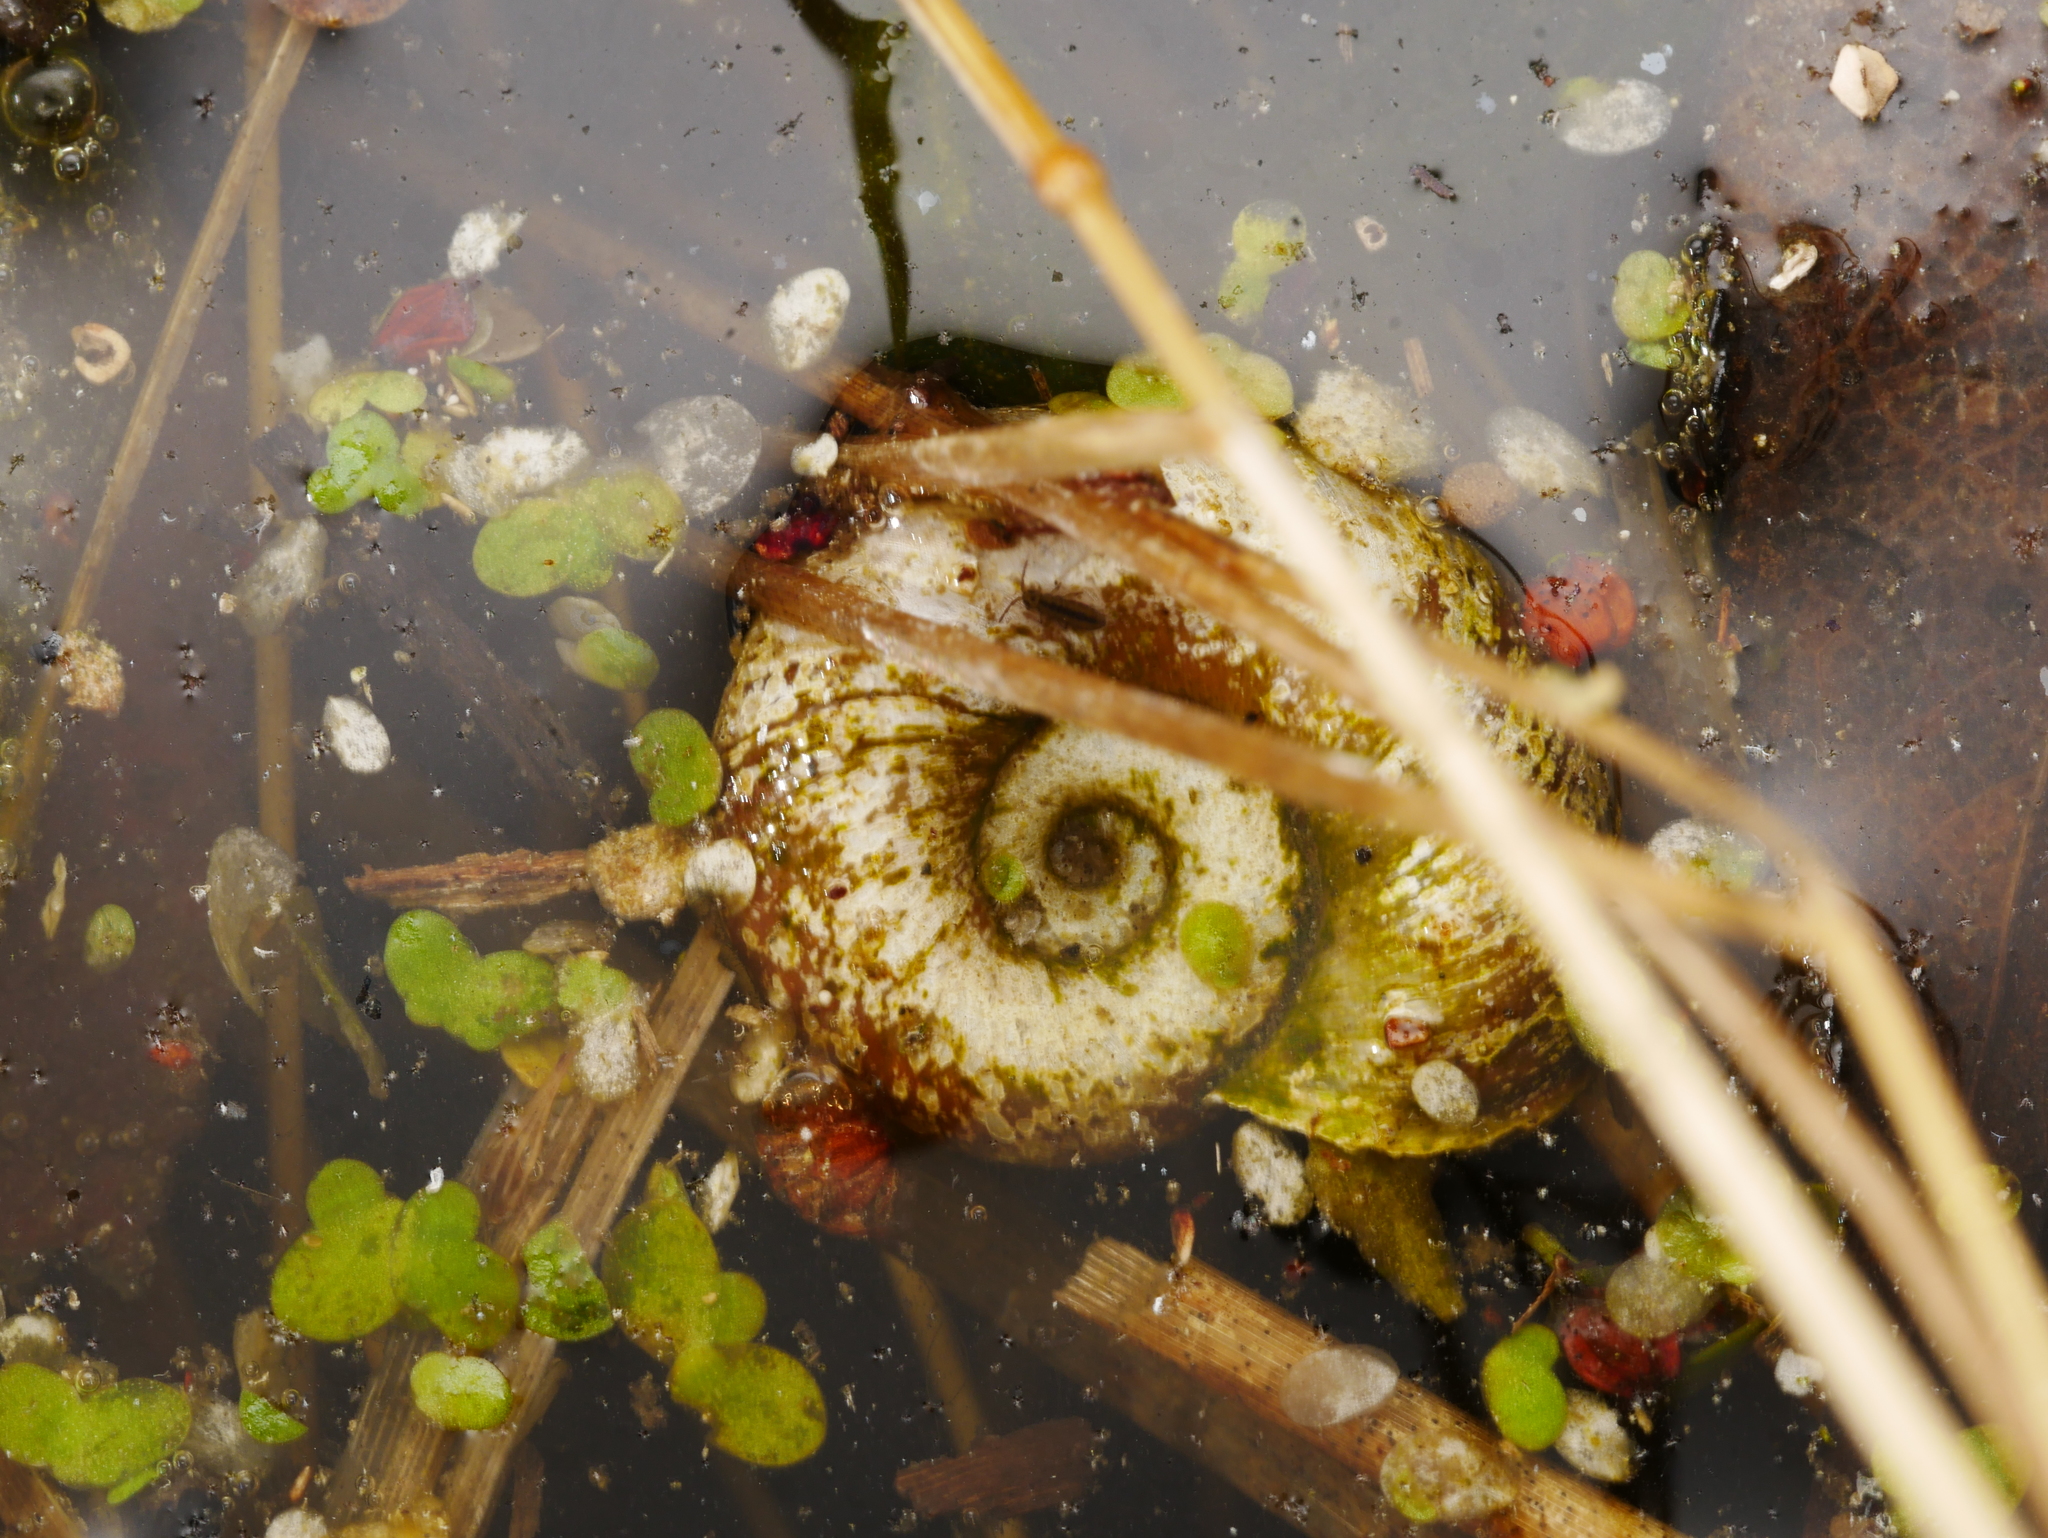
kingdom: Animalia
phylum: Mollusca
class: Gastropoda
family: Planorbidae
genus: Planorbarius
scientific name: Planorbarius corneus
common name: Great ramshorn
